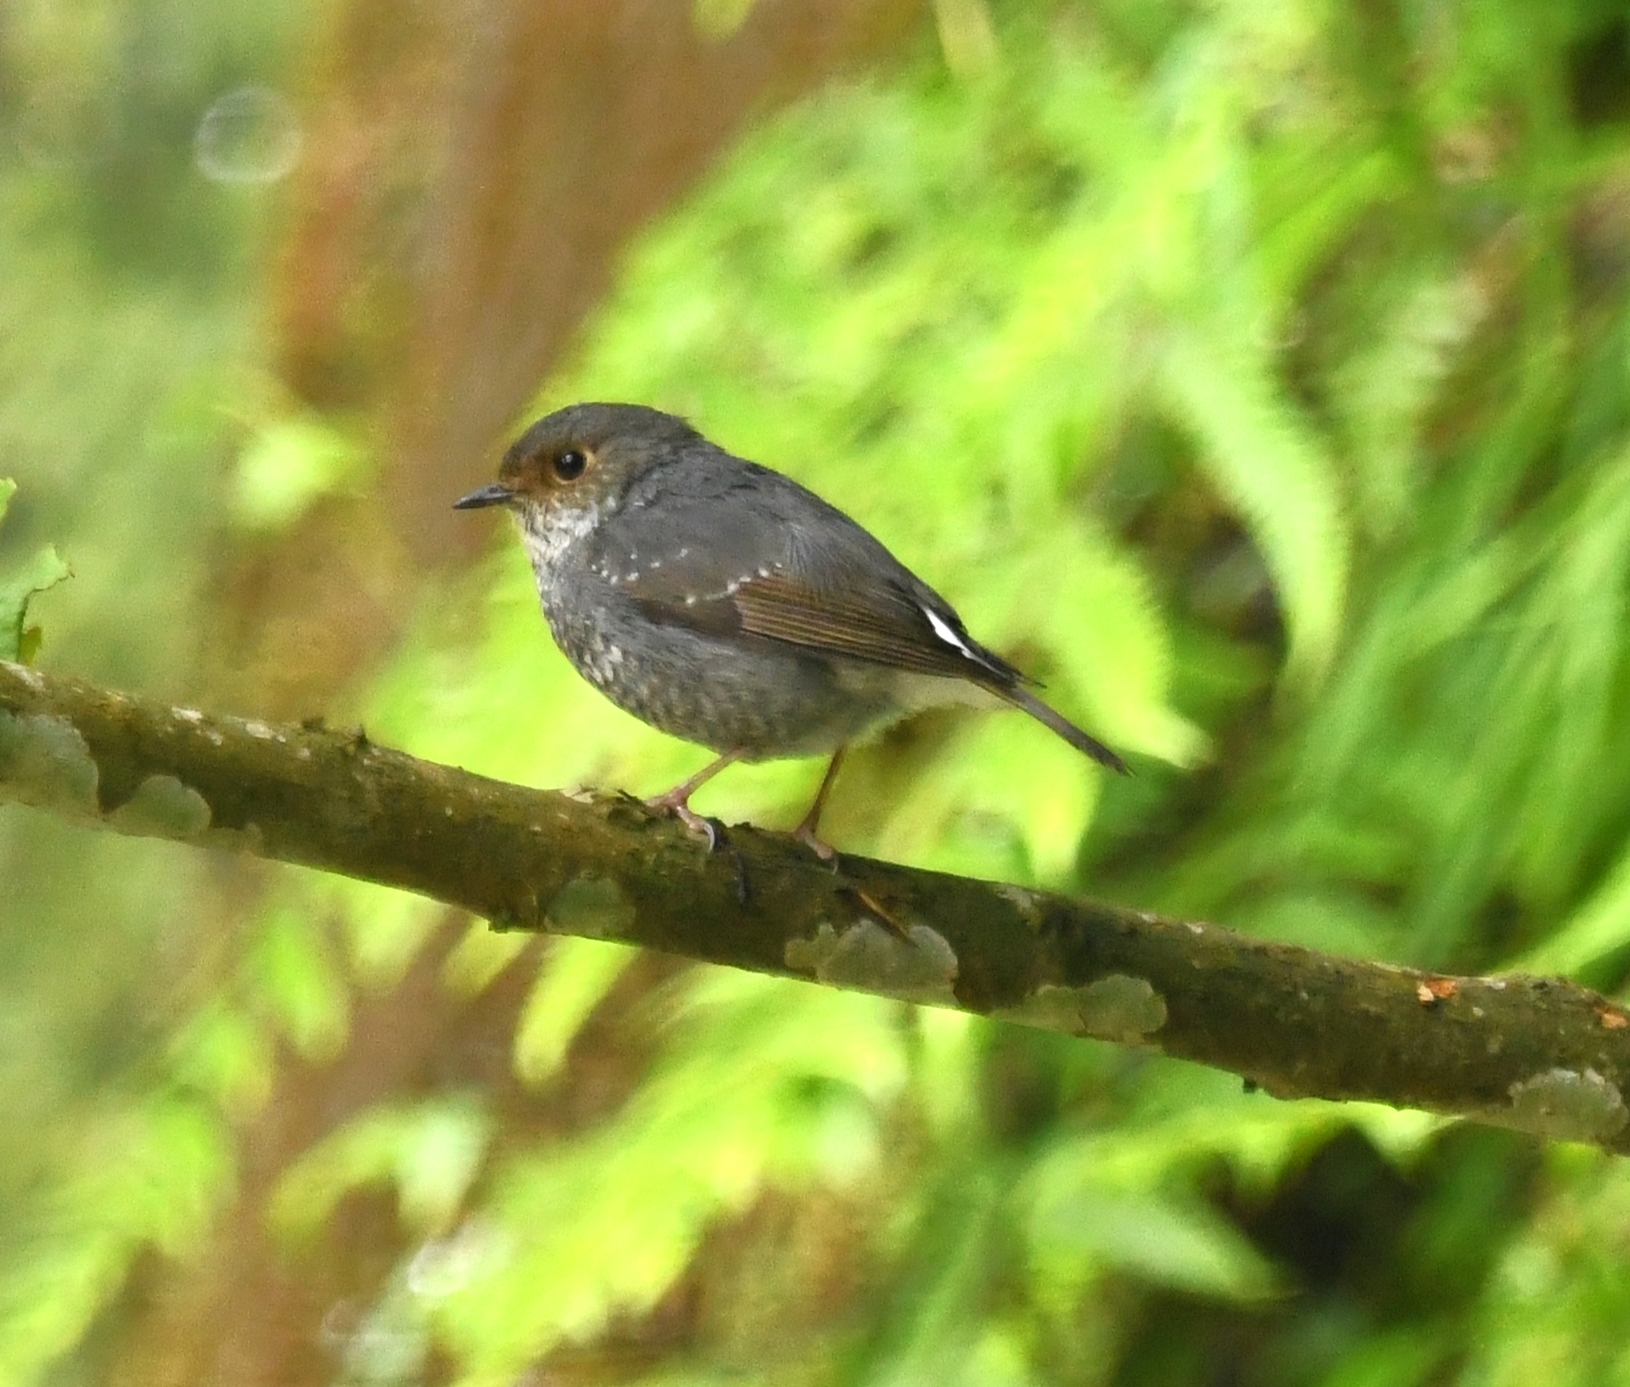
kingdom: Animalia
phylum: Chordata
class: Aves
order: Passeriformes
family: Muscicapidae
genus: Phoenicurus
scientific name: Phoenicurus fuliginosus
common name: Plumbeous water redstart
